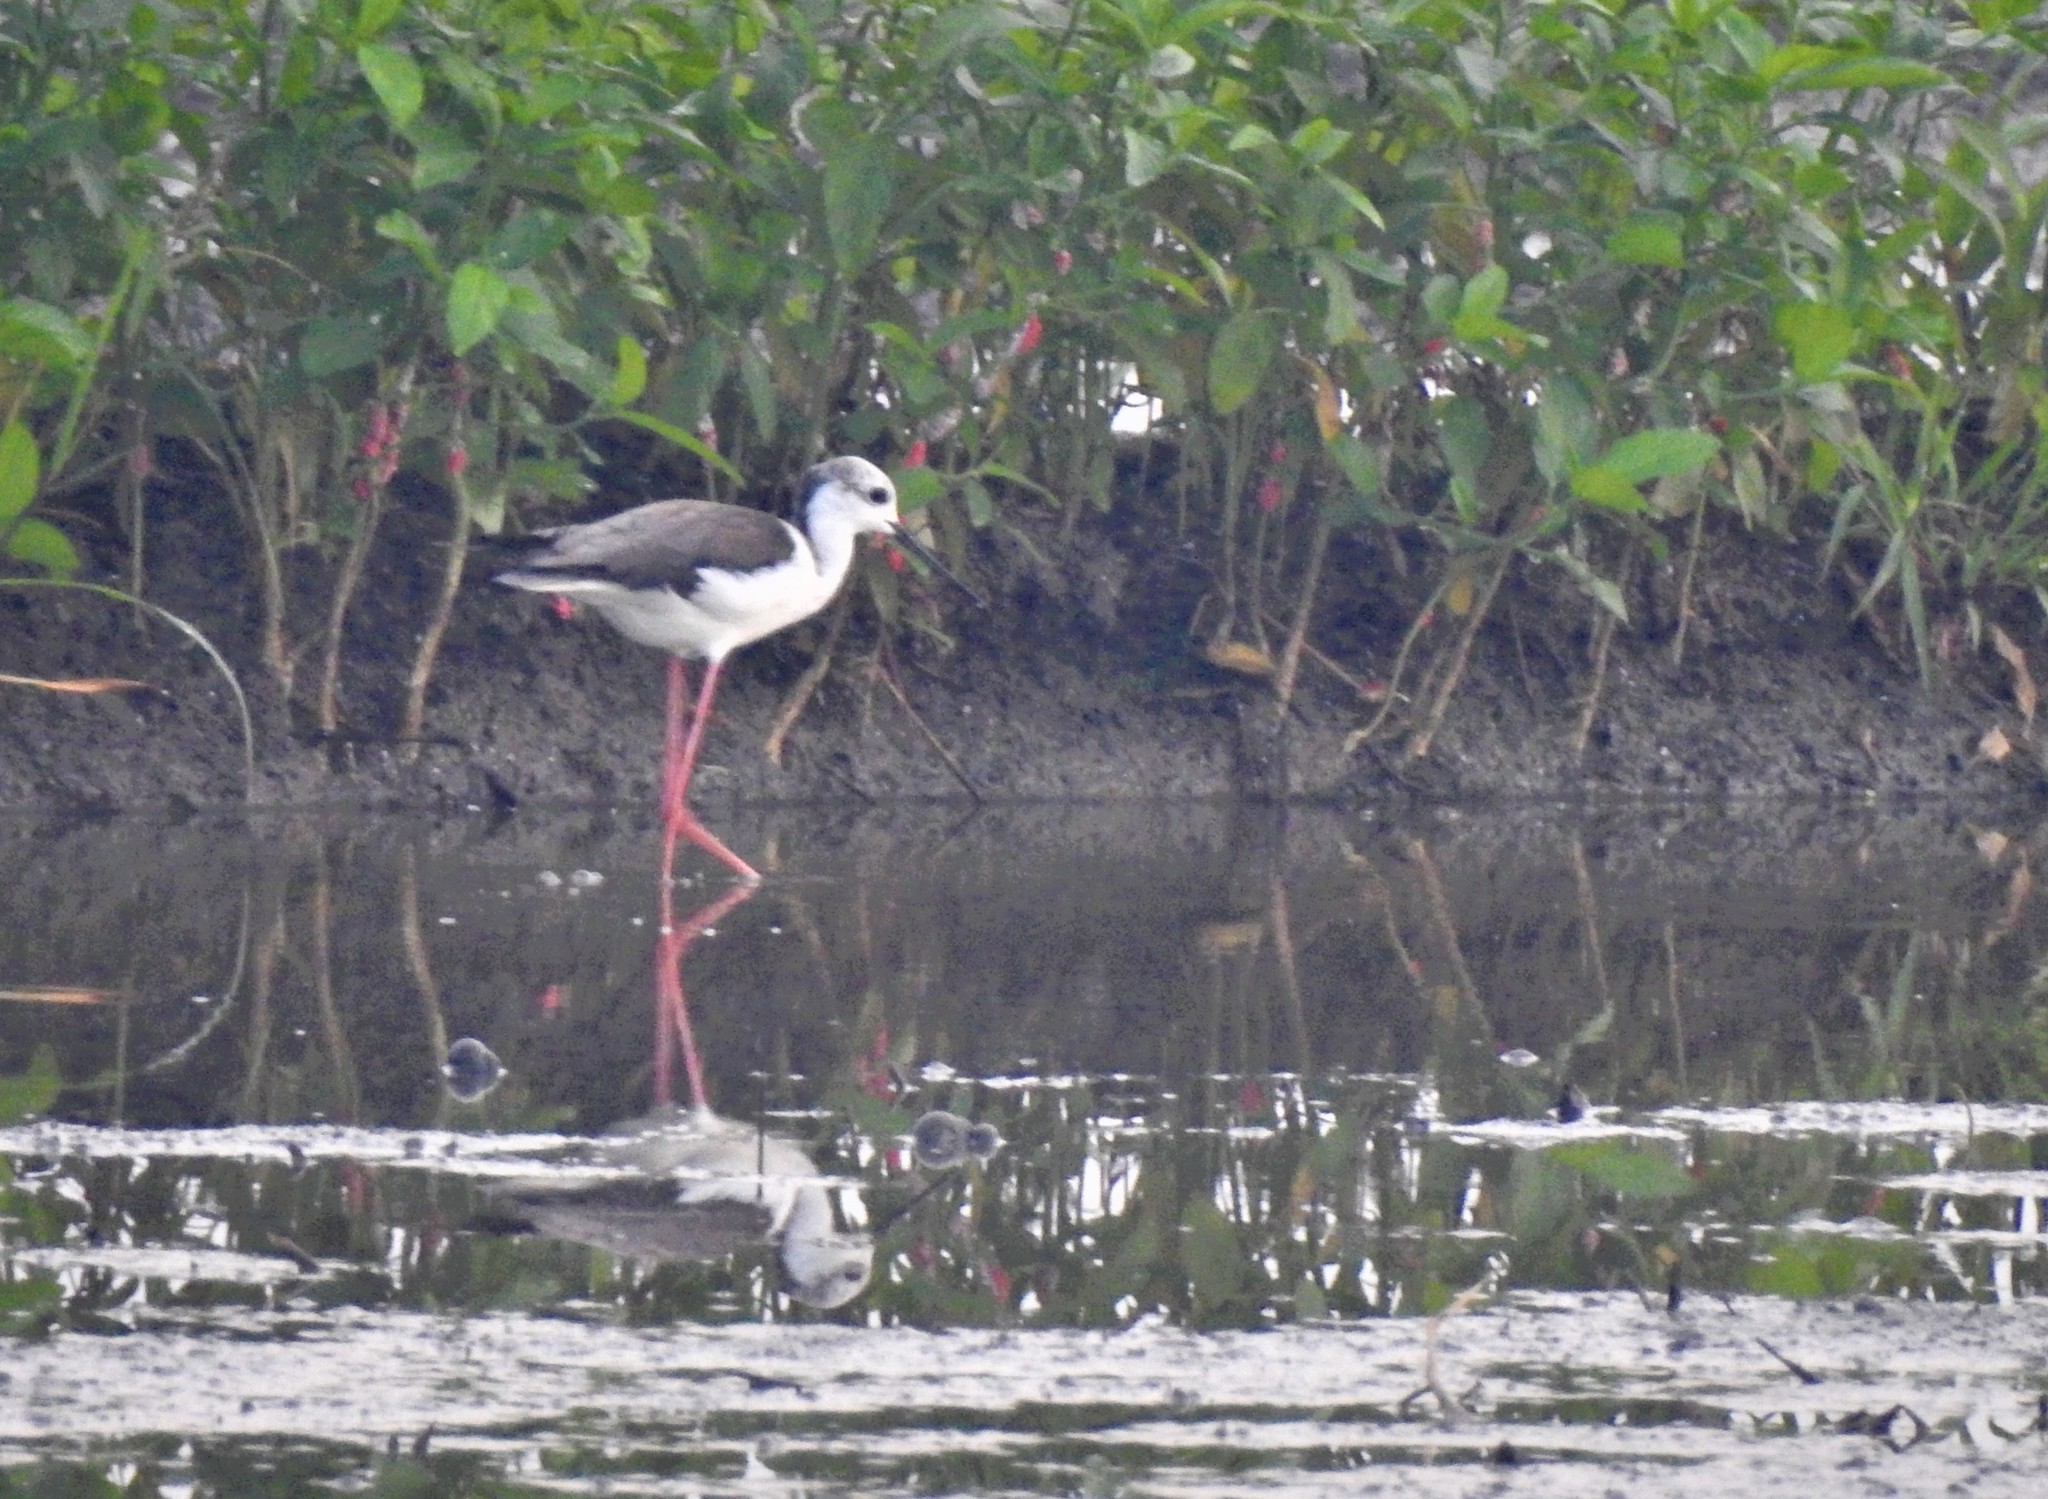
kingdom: Animalia
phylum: Chordata
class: Aves
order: Charadriiformes
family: Recurvirostridae
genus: Himantopus
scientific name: Himantopus himantopus
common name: Black-winged stilt
